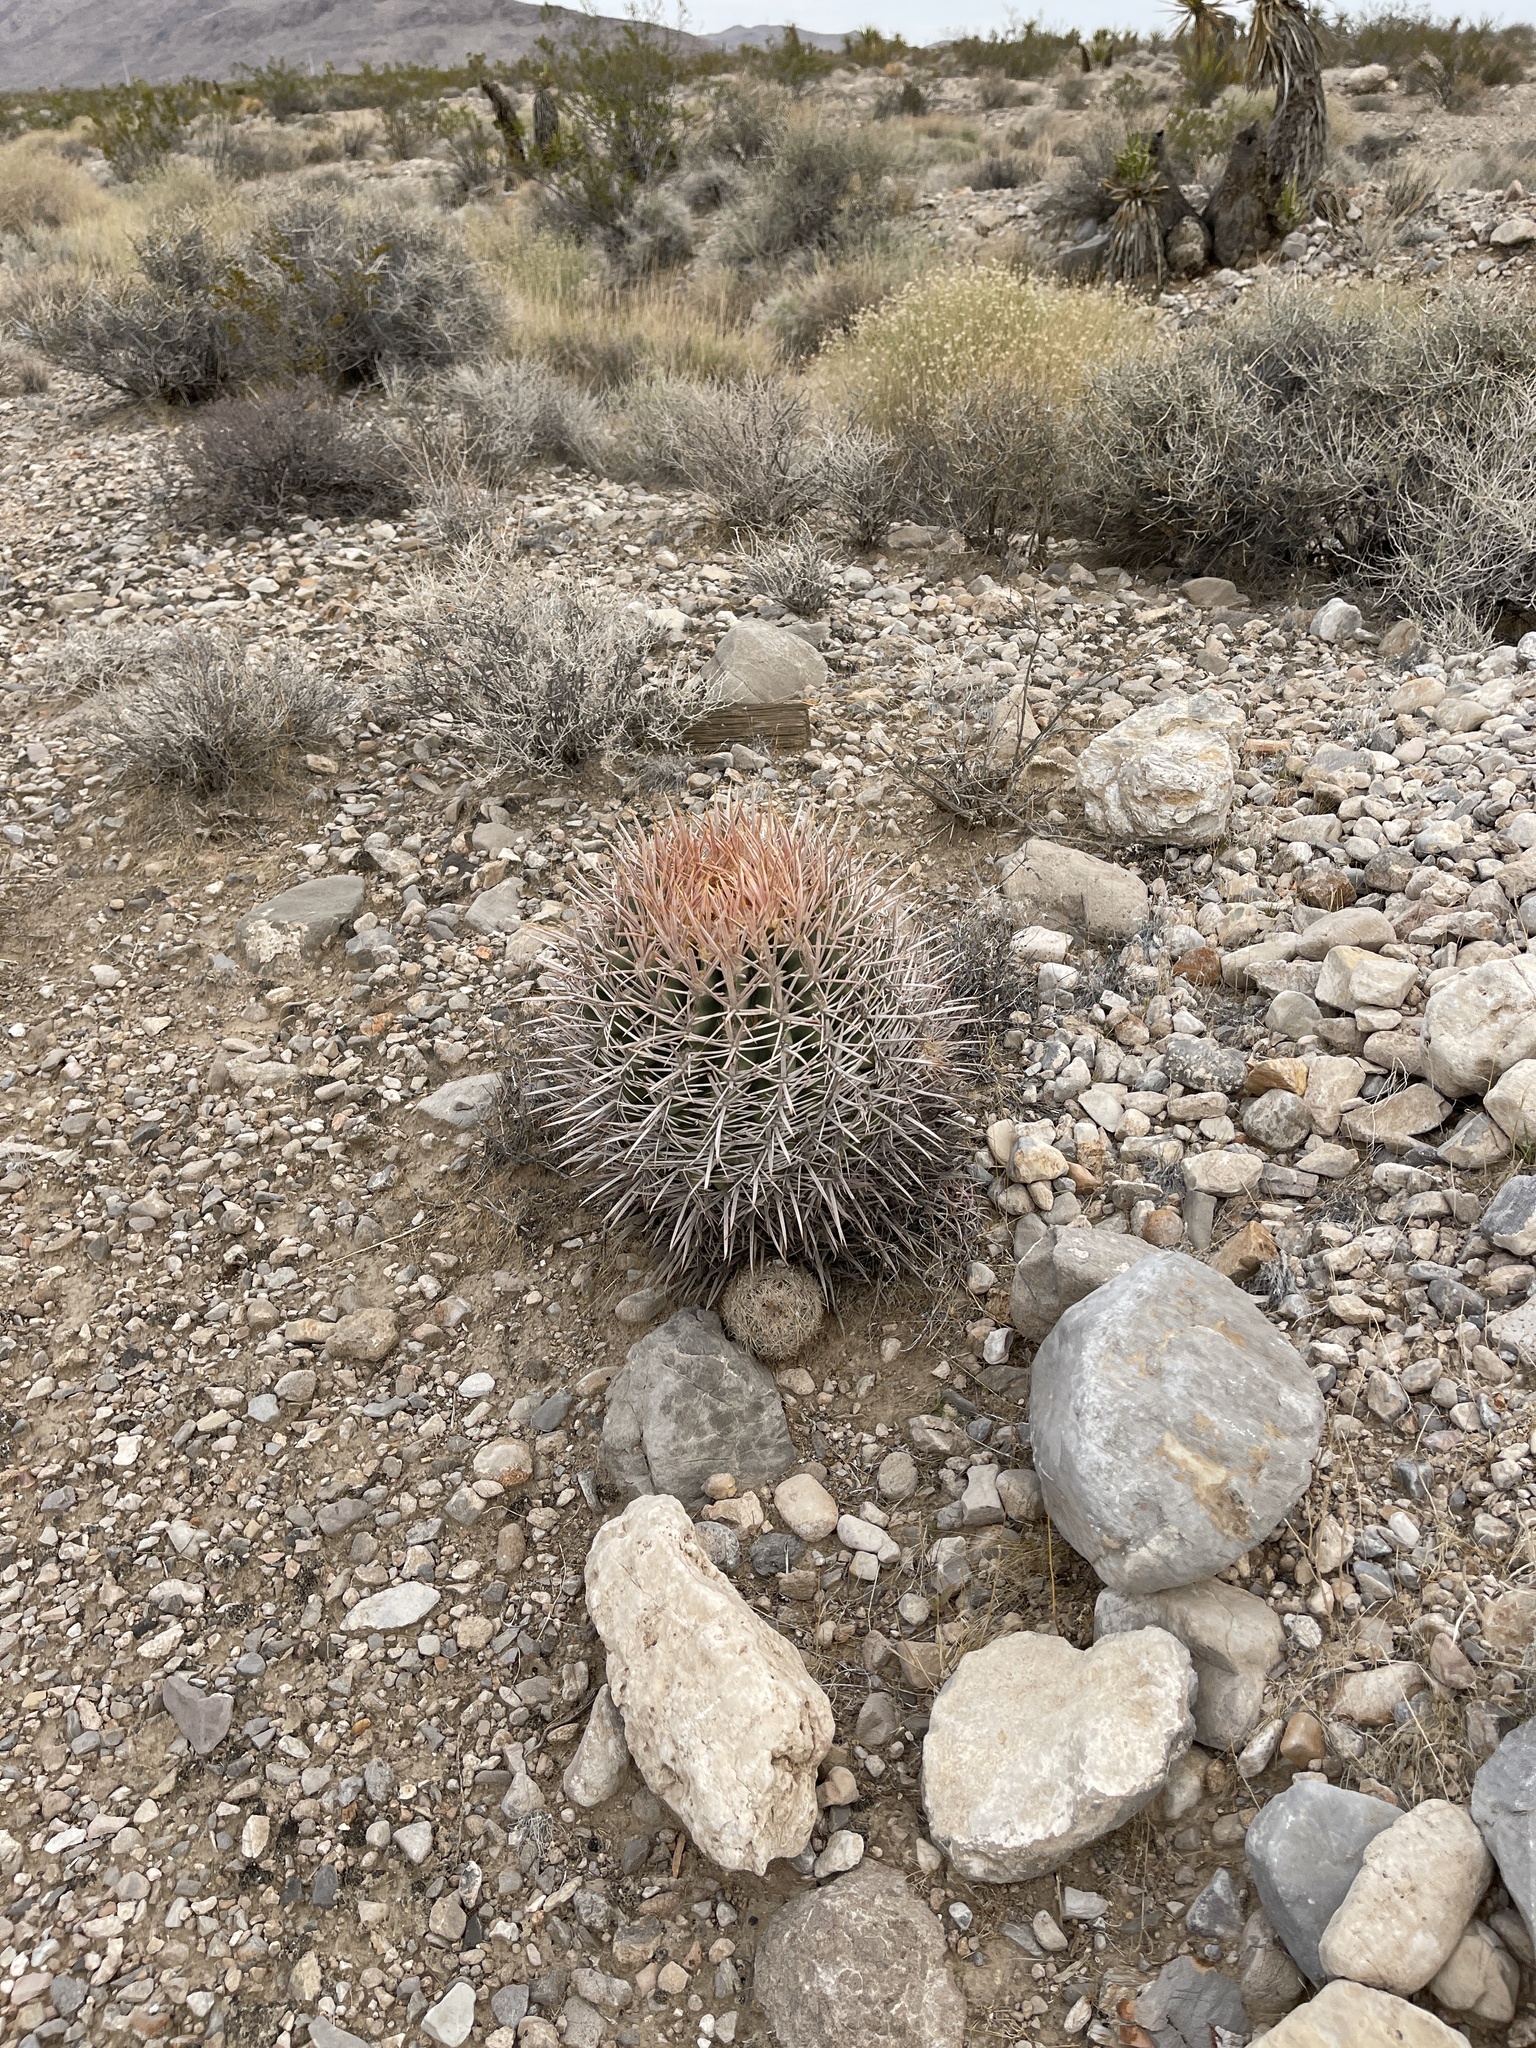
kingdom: Plantae
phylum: Tracheophyta
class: Magnoliopsida
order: Caryophyllales
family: Cactaceae
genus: Echinocactus
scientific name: Echinocactus polycephalus
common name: Cottontop cactus
